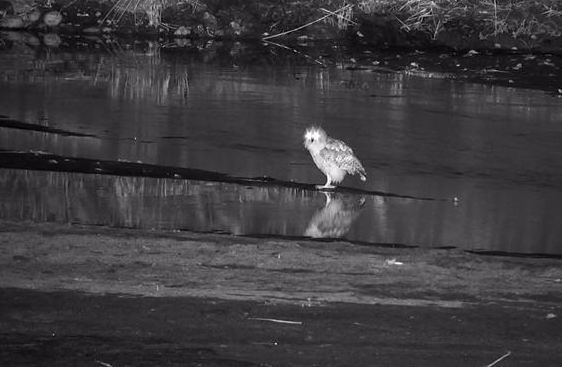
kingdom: Animalia
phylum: Chordata
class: Aves
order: Strigiformes
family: Strigidae
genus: Scotopelia
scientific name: Scotopelia peli
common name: Pel's fishing owl
